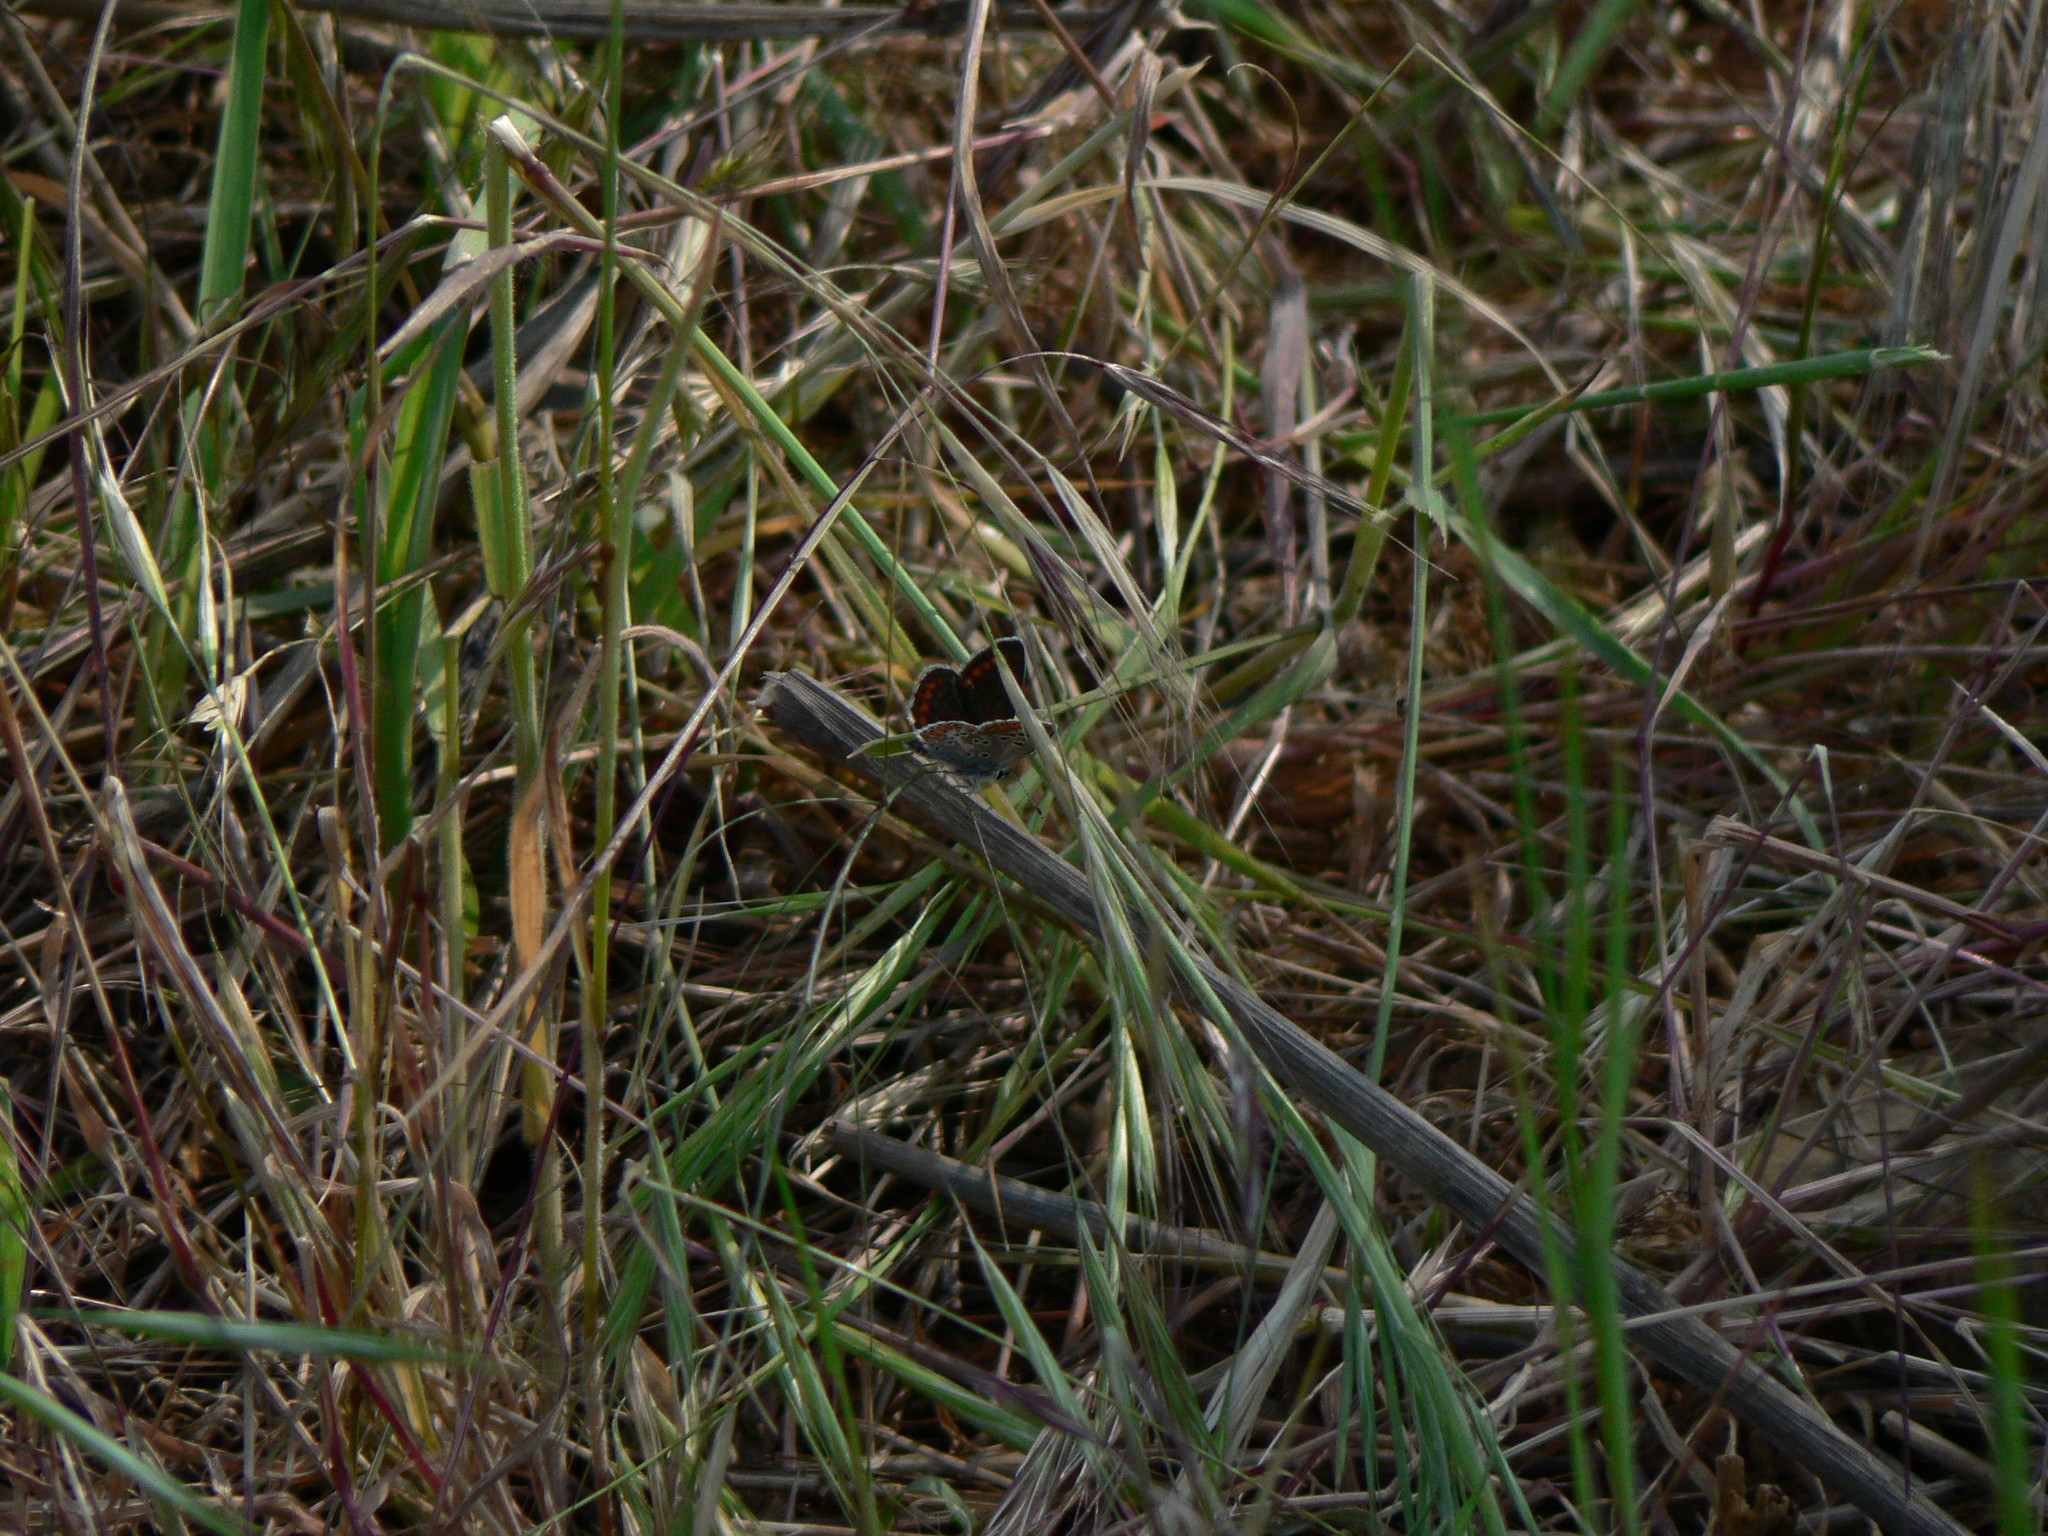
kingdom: Animalia
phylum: Arthropoda
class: Insecta
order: Lepidoptera
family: Lycaenidae
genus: Aricia
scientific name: Aricia agestis
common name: Brown argus
